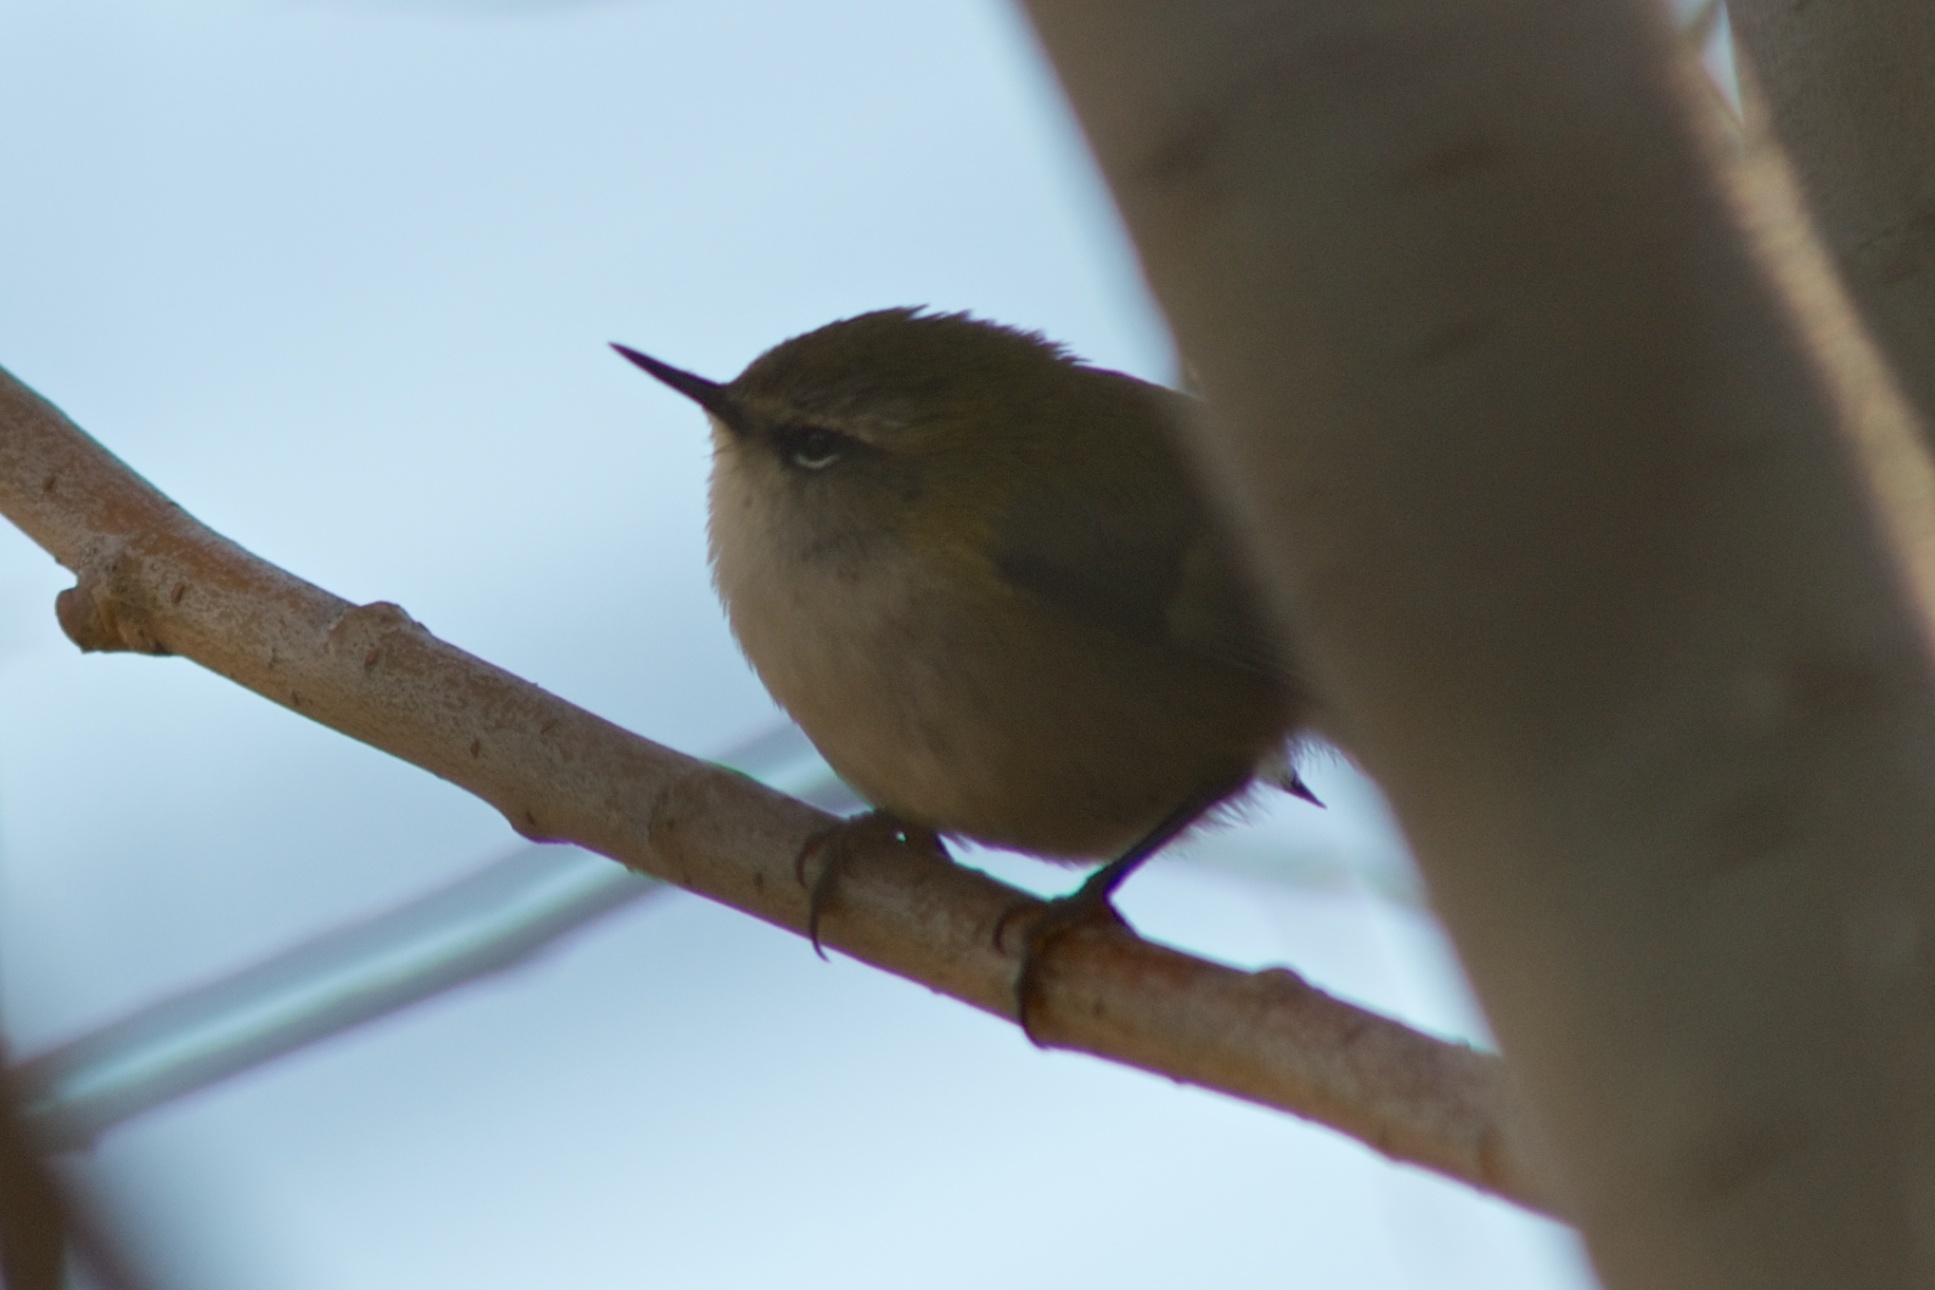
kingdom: Animalia
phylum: Chordata
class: Aves
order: Passeriformes
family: Acanthisittidae
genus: Acanthisitta
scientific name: Acanthisitta chloris
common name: Rifleman
